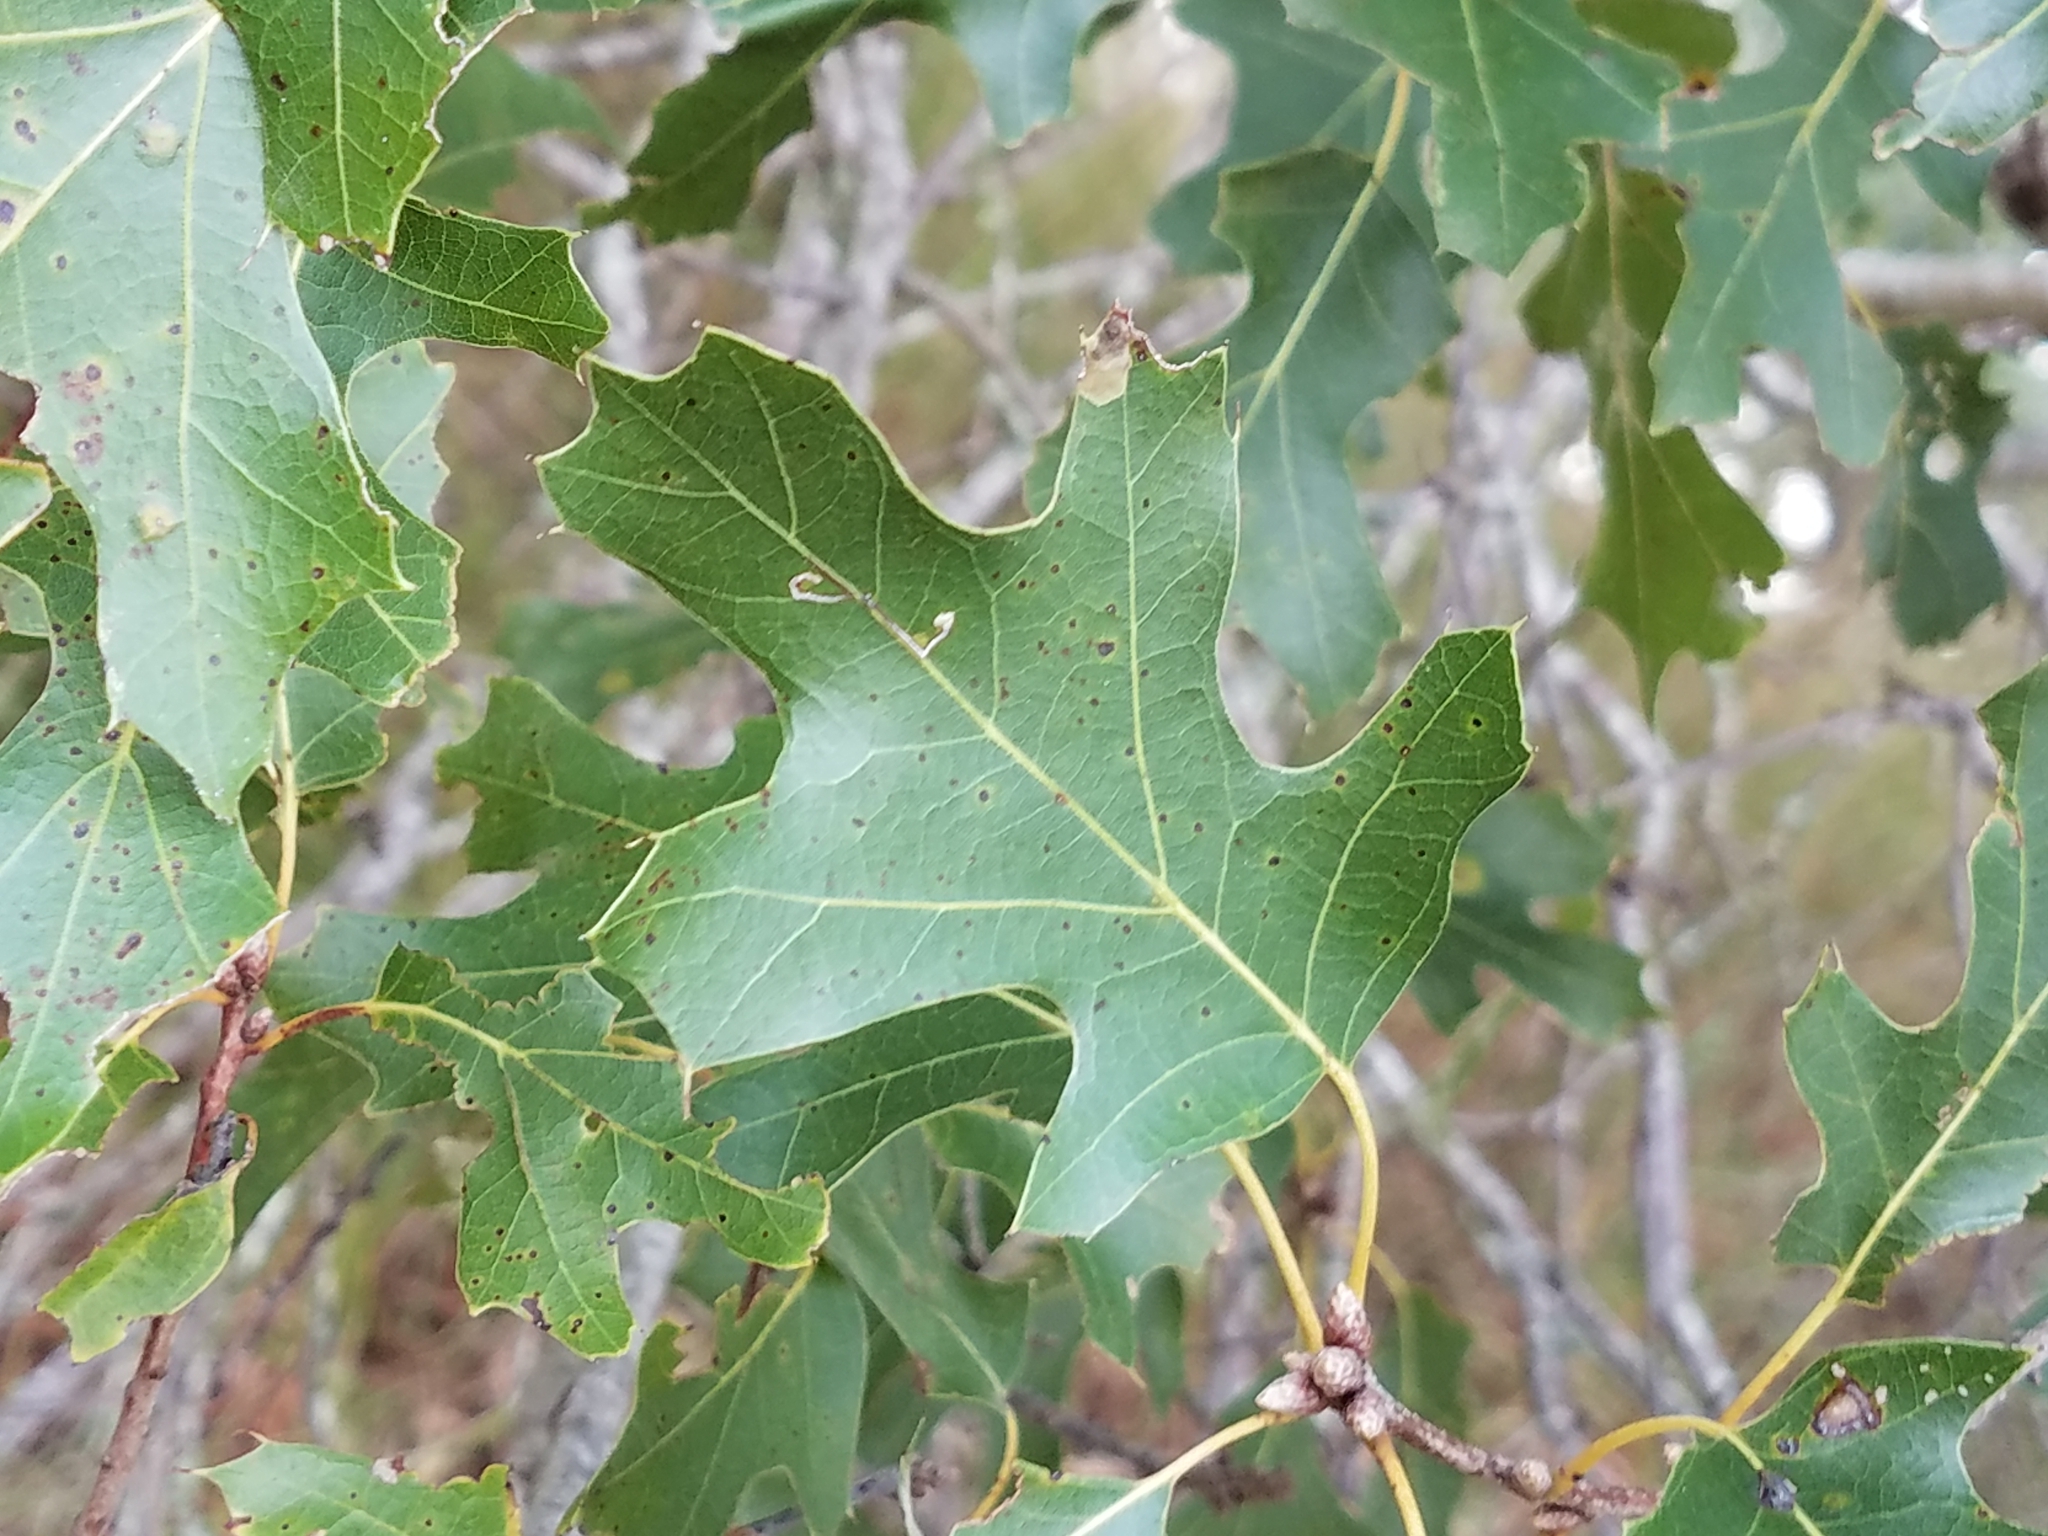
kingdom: Plantae
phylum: Tracheophyta
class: Magnoliopsida
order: Fagales
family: Fagaceae
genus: Quercus
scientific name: Quercus buckleyi
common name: Buckley oak
